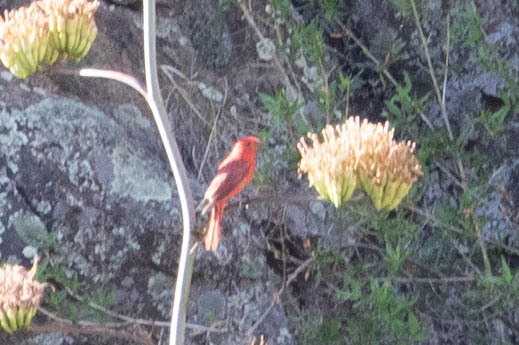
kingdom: Animalia
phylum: Chordata
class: Aves
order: Passeriformes
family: Cardinalidae
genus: Piranga
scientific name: Piranga rubra
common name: Summer tanager
